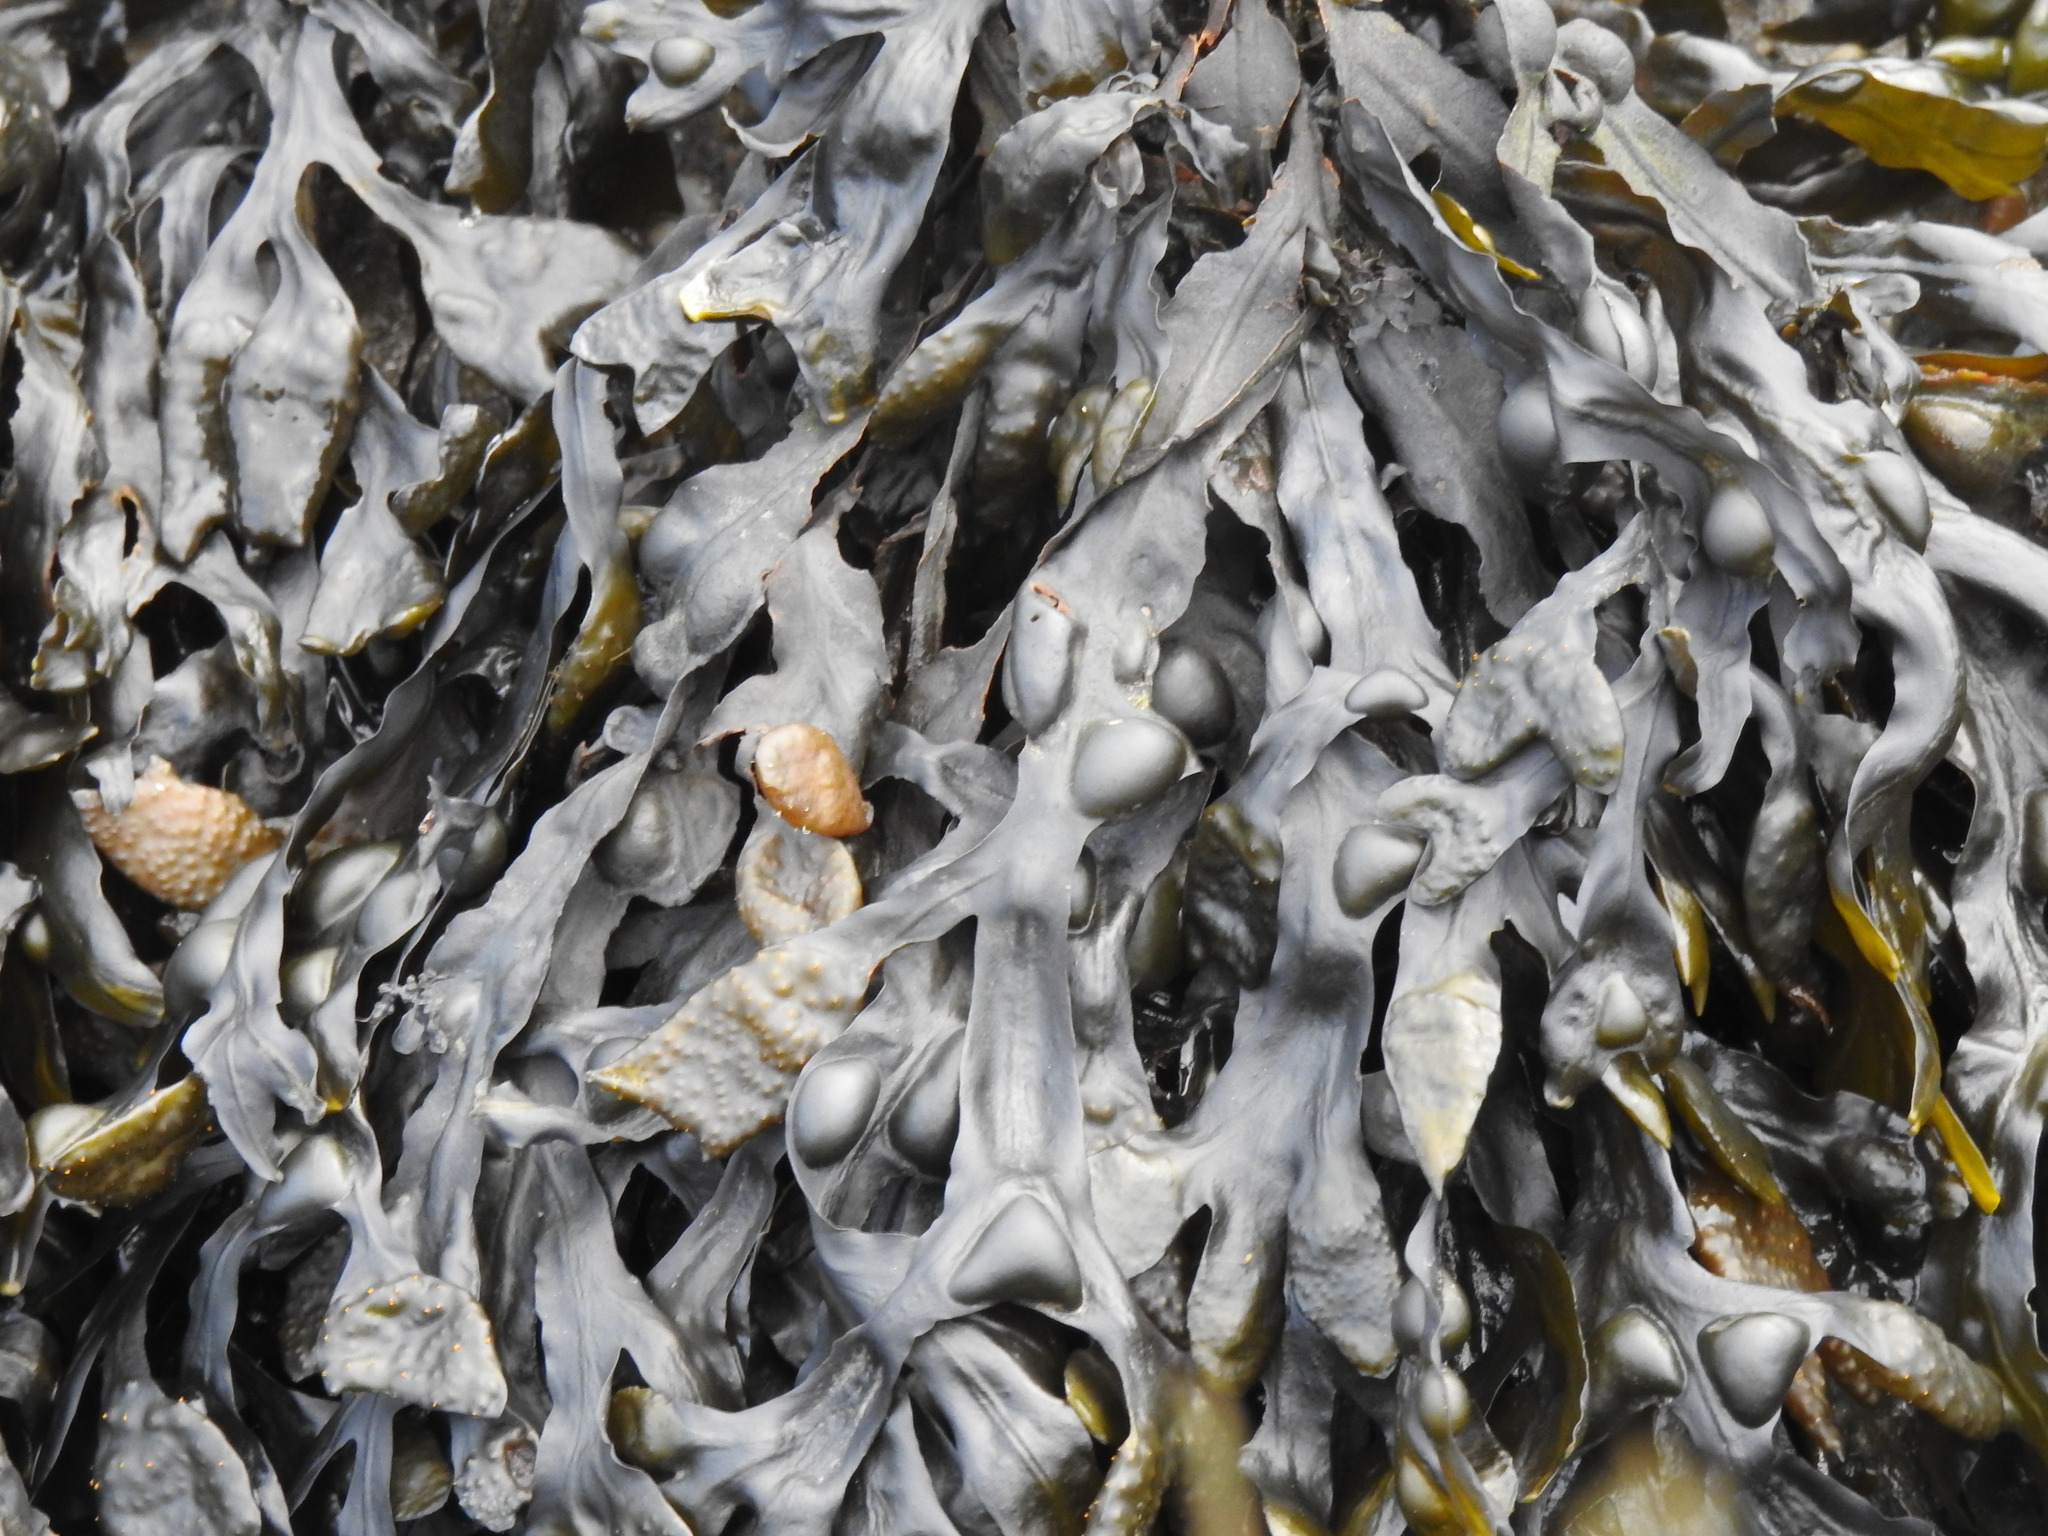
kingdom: Chromista
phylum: Ochrophyta
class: Phaeophyceae
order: Fucales
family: Fucaceae
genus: Fucus
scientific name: Fucus vesiculosus
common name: Bladder wrack
